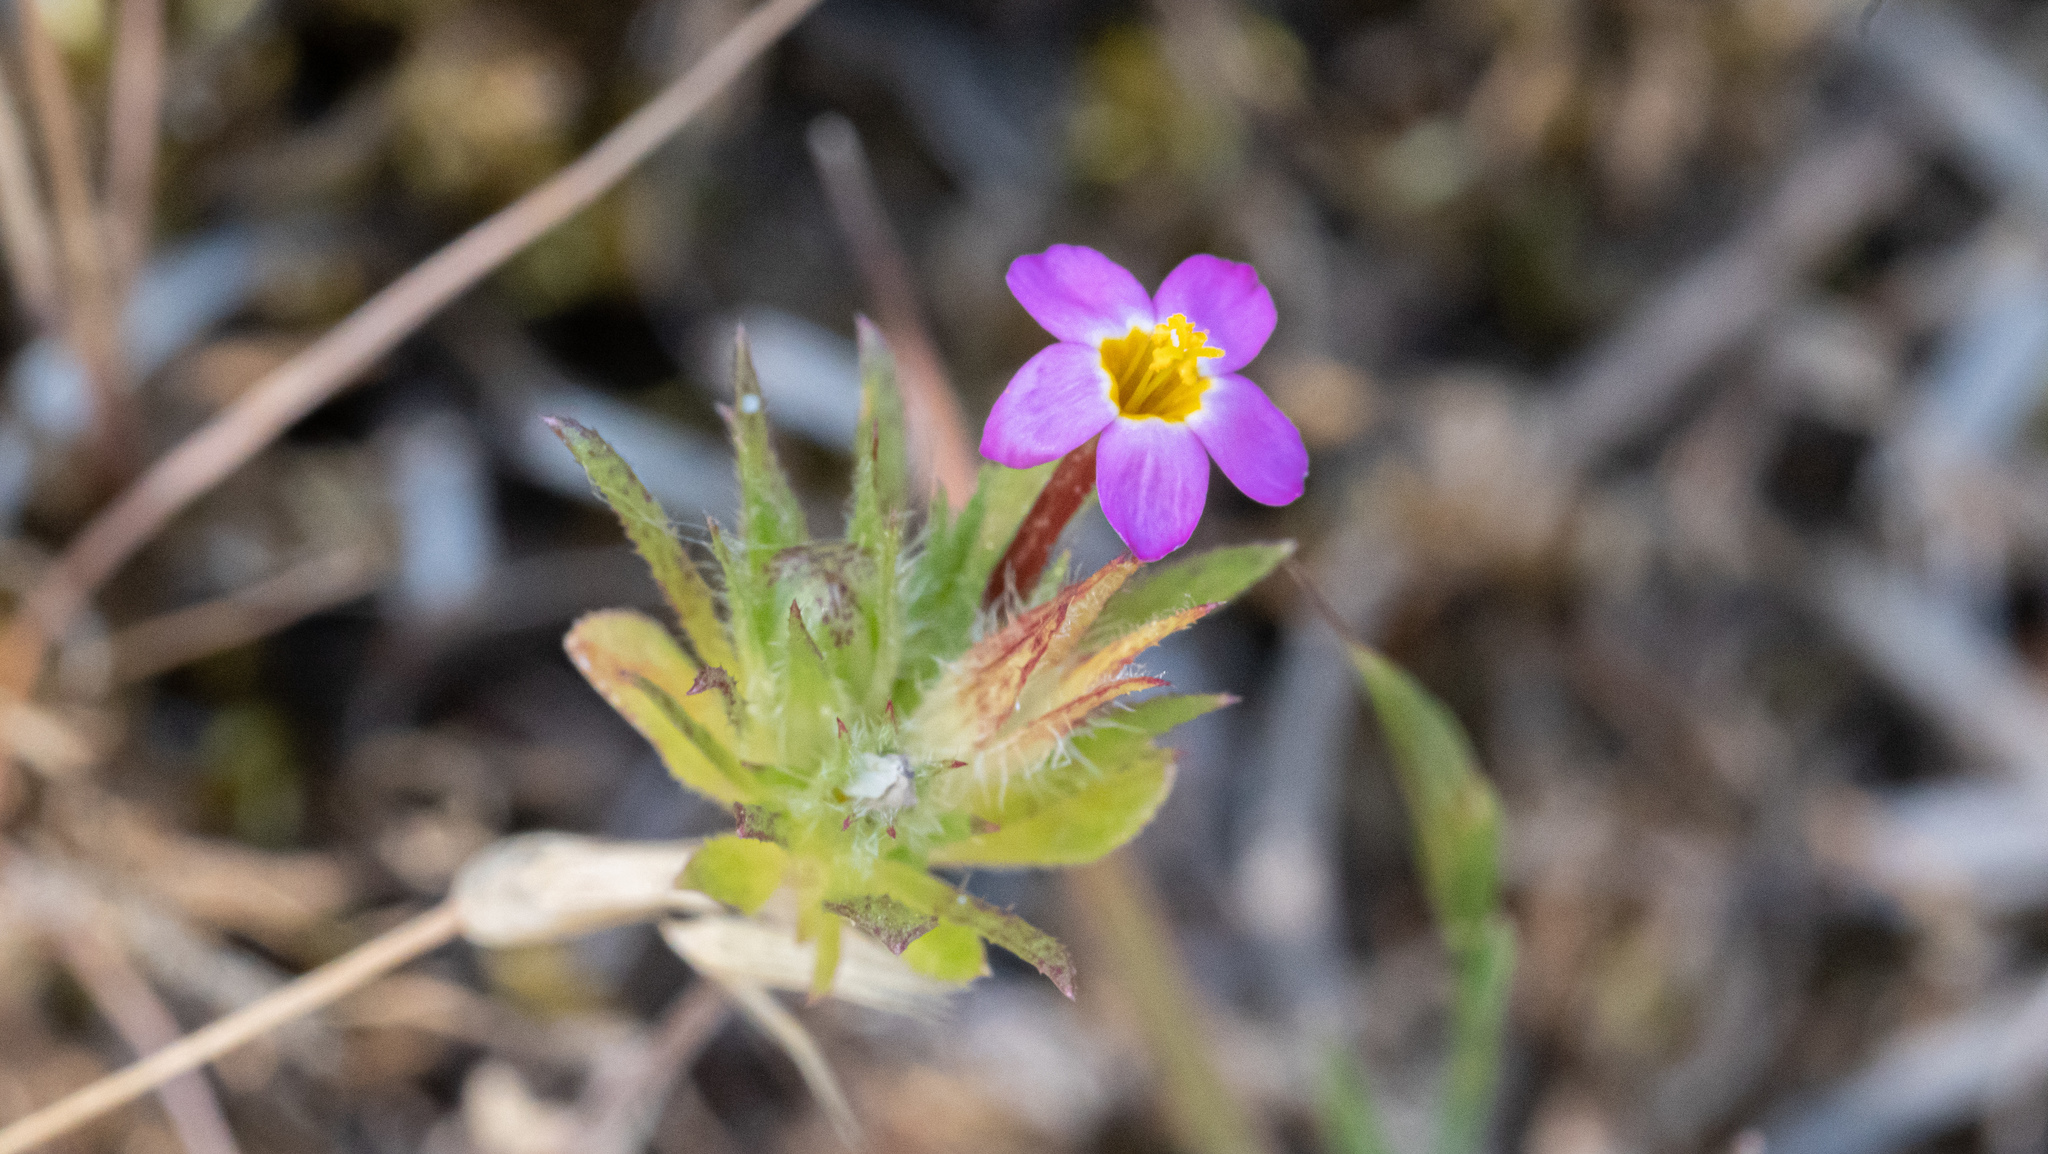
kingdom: Plantae
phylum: Tracheophyta
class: Magnoliopsida
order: Ericales
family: Polemoniaceae
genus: Leptosiphon
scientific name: Leptosiphon bicolor
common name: True babystars
